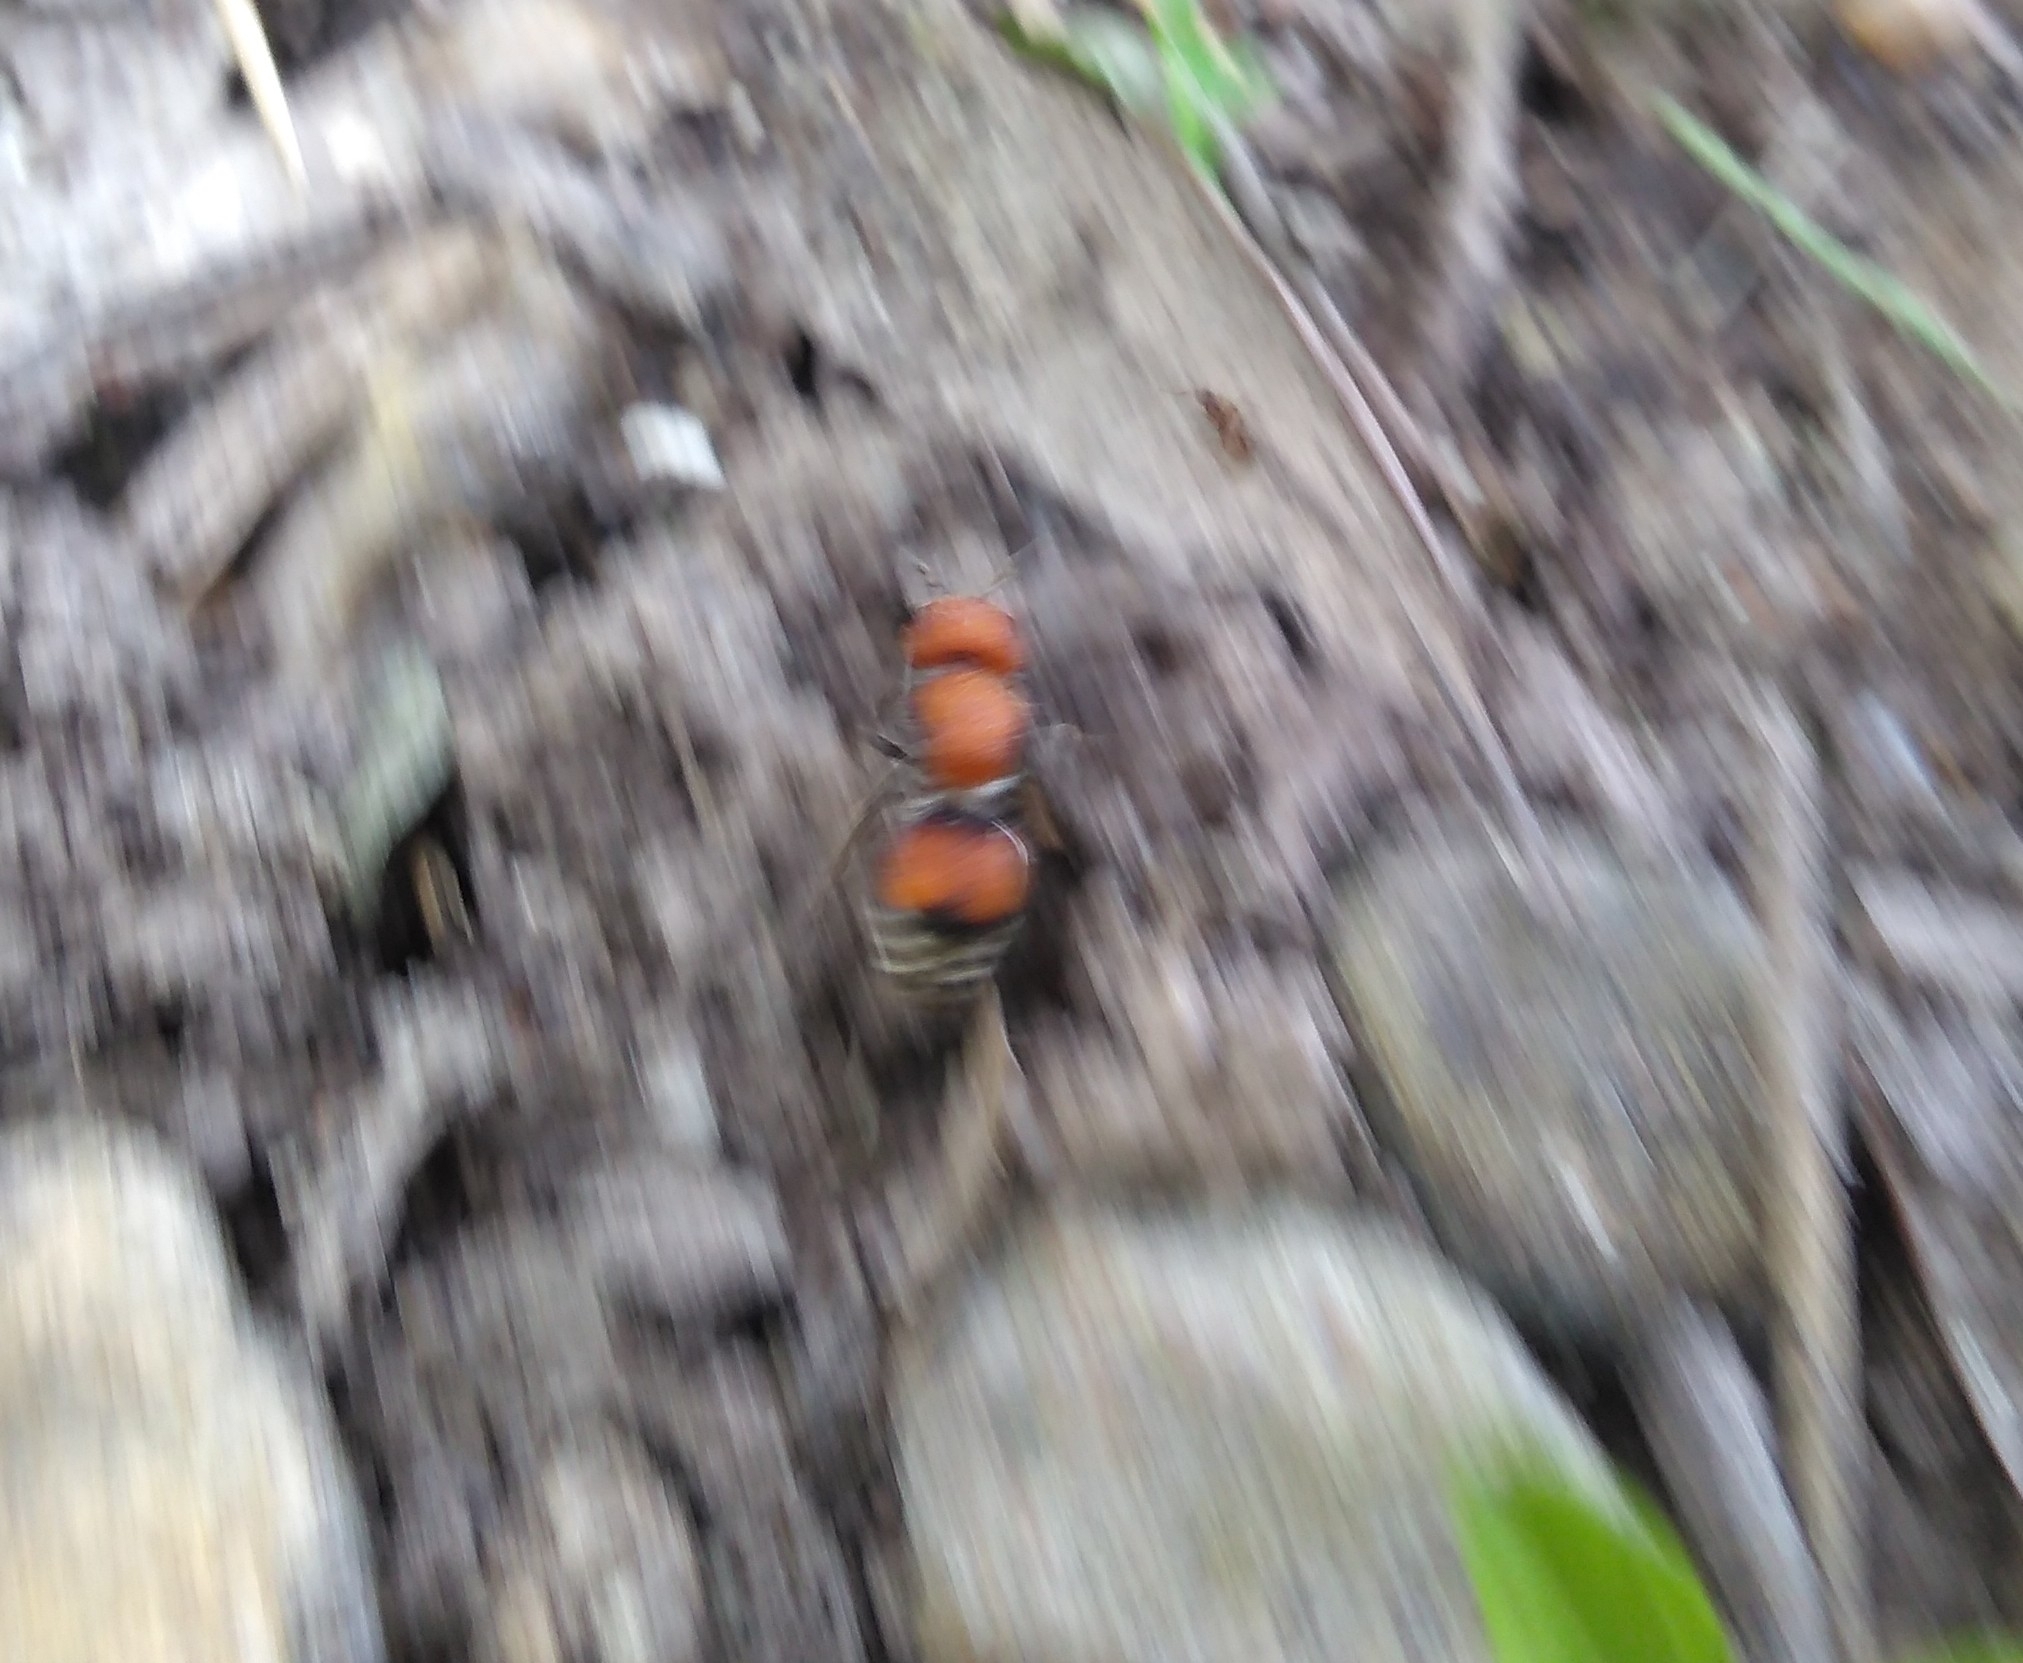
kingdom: Animalia
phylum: Arthropoda
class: Insecta
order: Hymenoptera
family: Mutillidae
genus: Pseudomethoca
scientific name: Pseudomethoca
